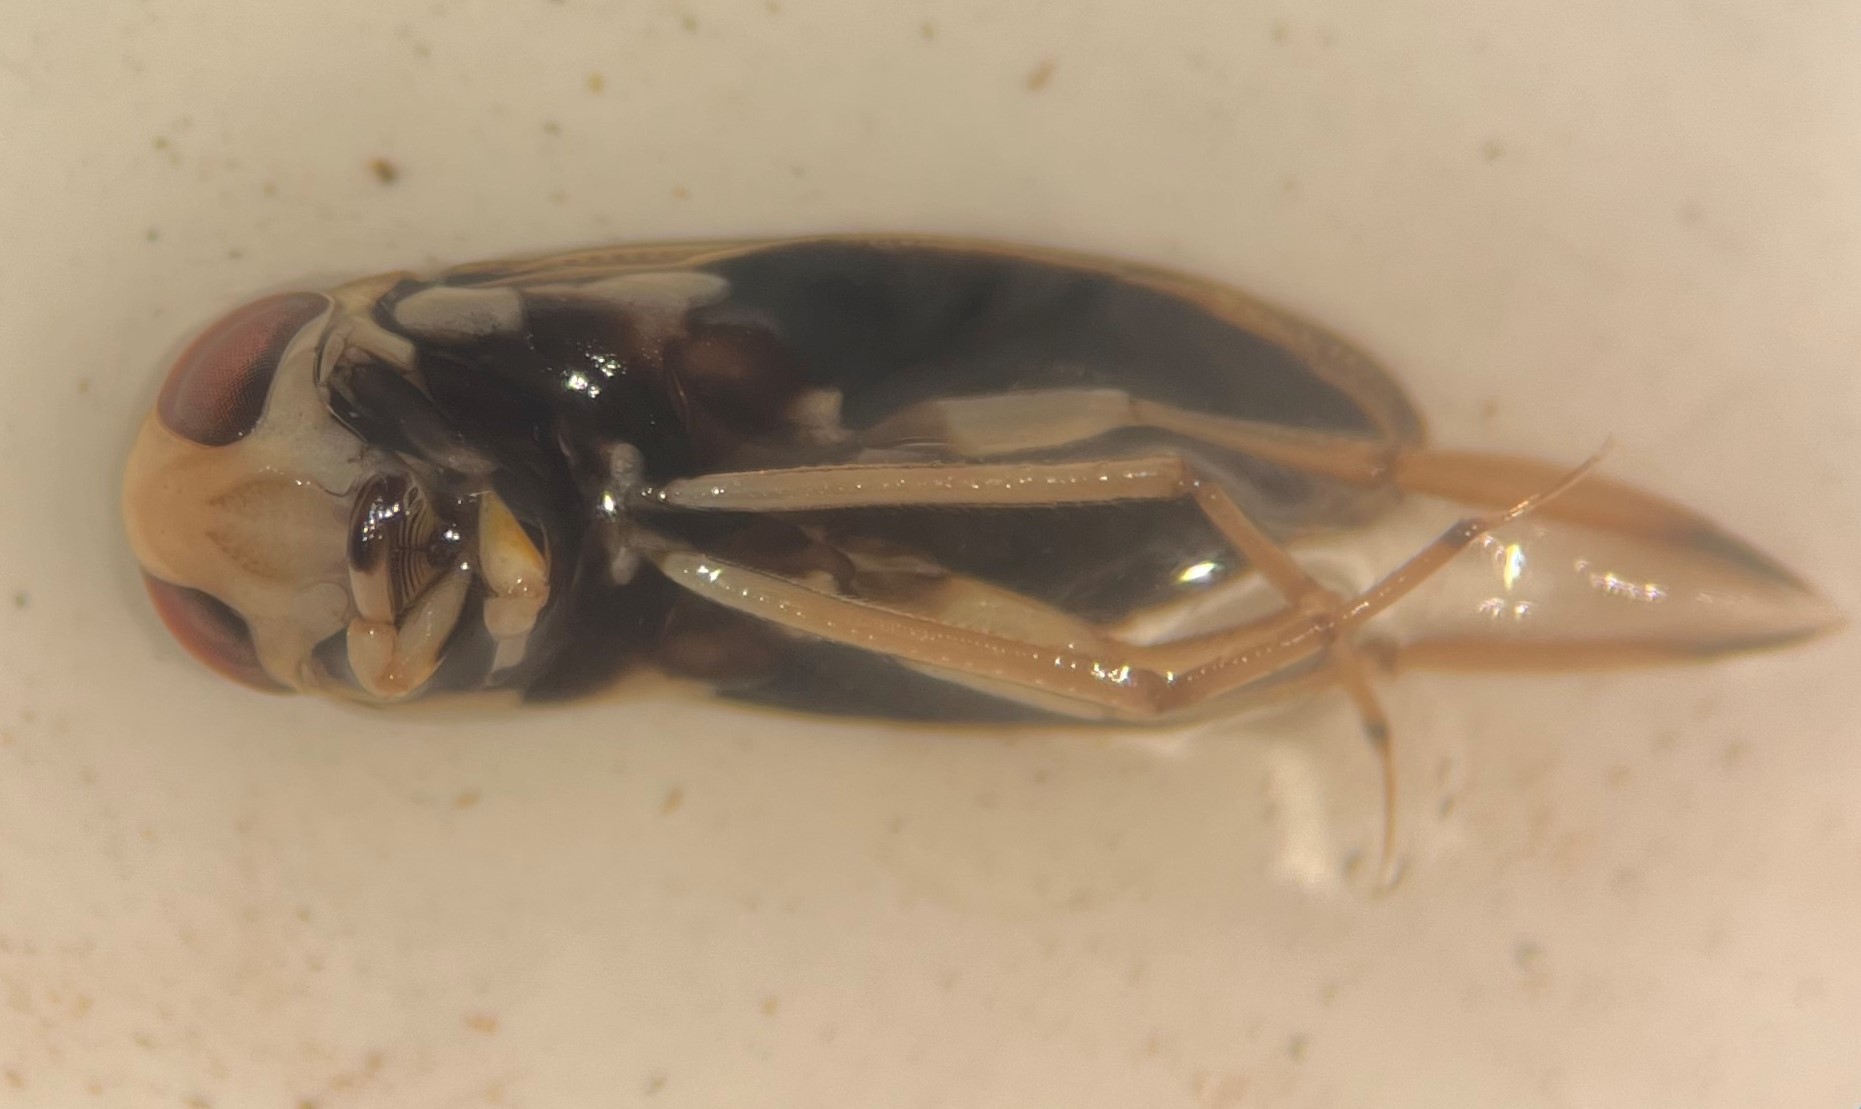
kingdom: Animalia
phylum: Arthropoda
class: Insecta
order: Hemiptera
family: Corixidae
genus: Graptocorixa
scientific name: Graptocorixa serrulata
